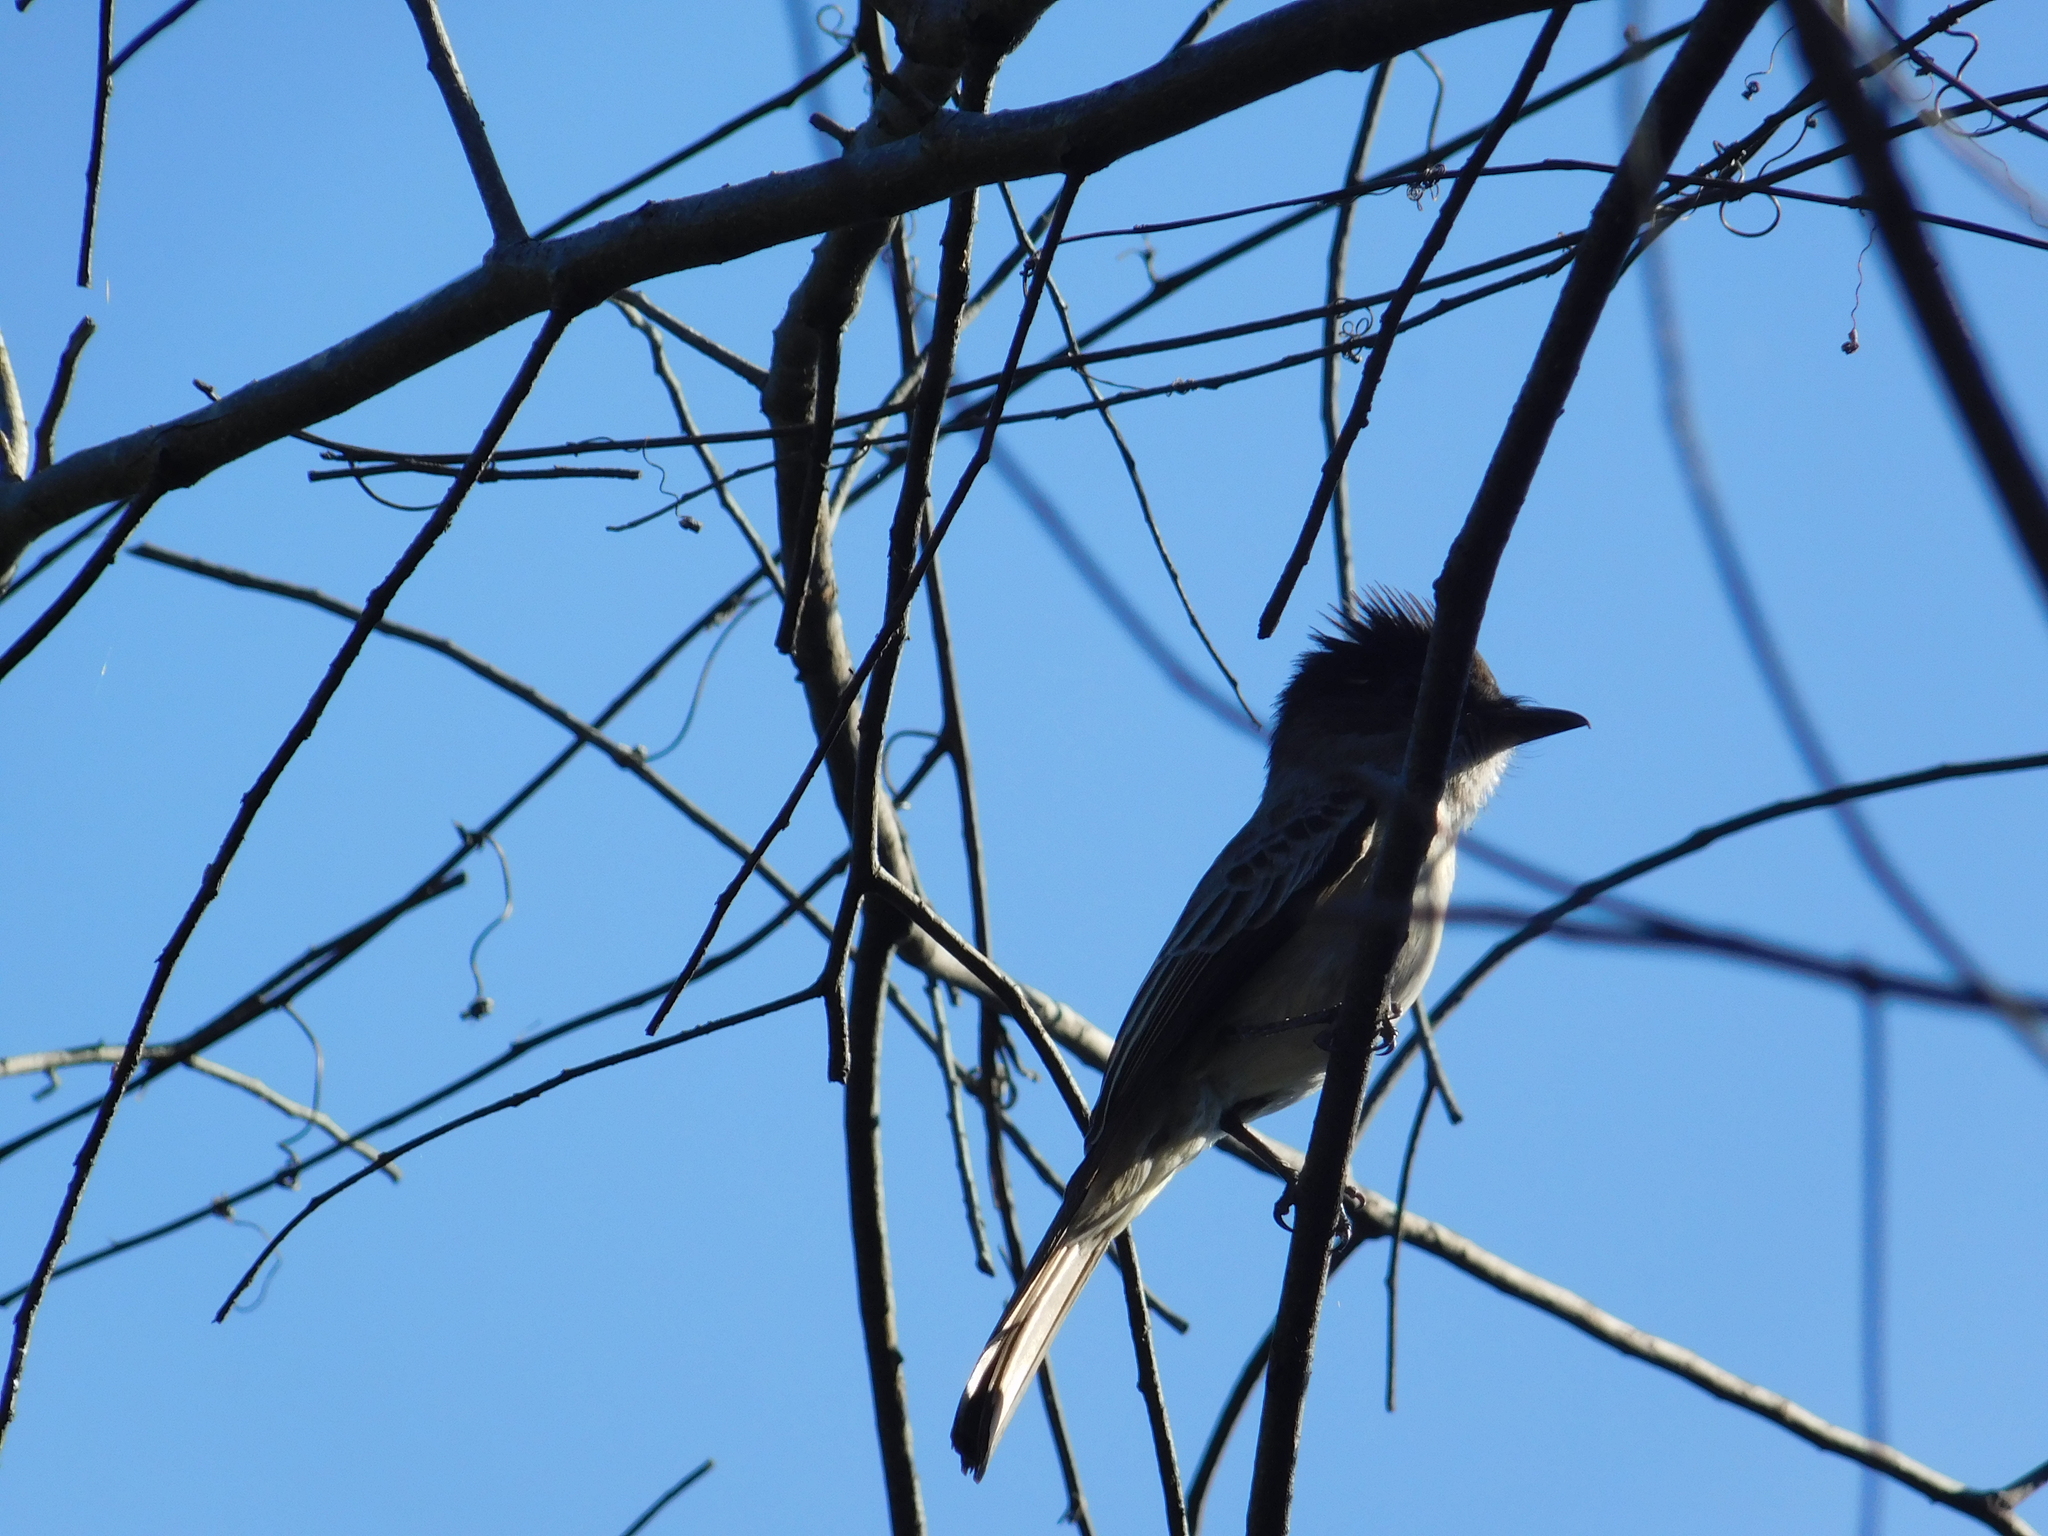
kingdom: Animalia
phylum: Chordata
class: Aves
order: Passeriformes
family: Tyrannidae
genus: Sirystes
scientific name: Sirystes sibilator
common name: Sirystes
